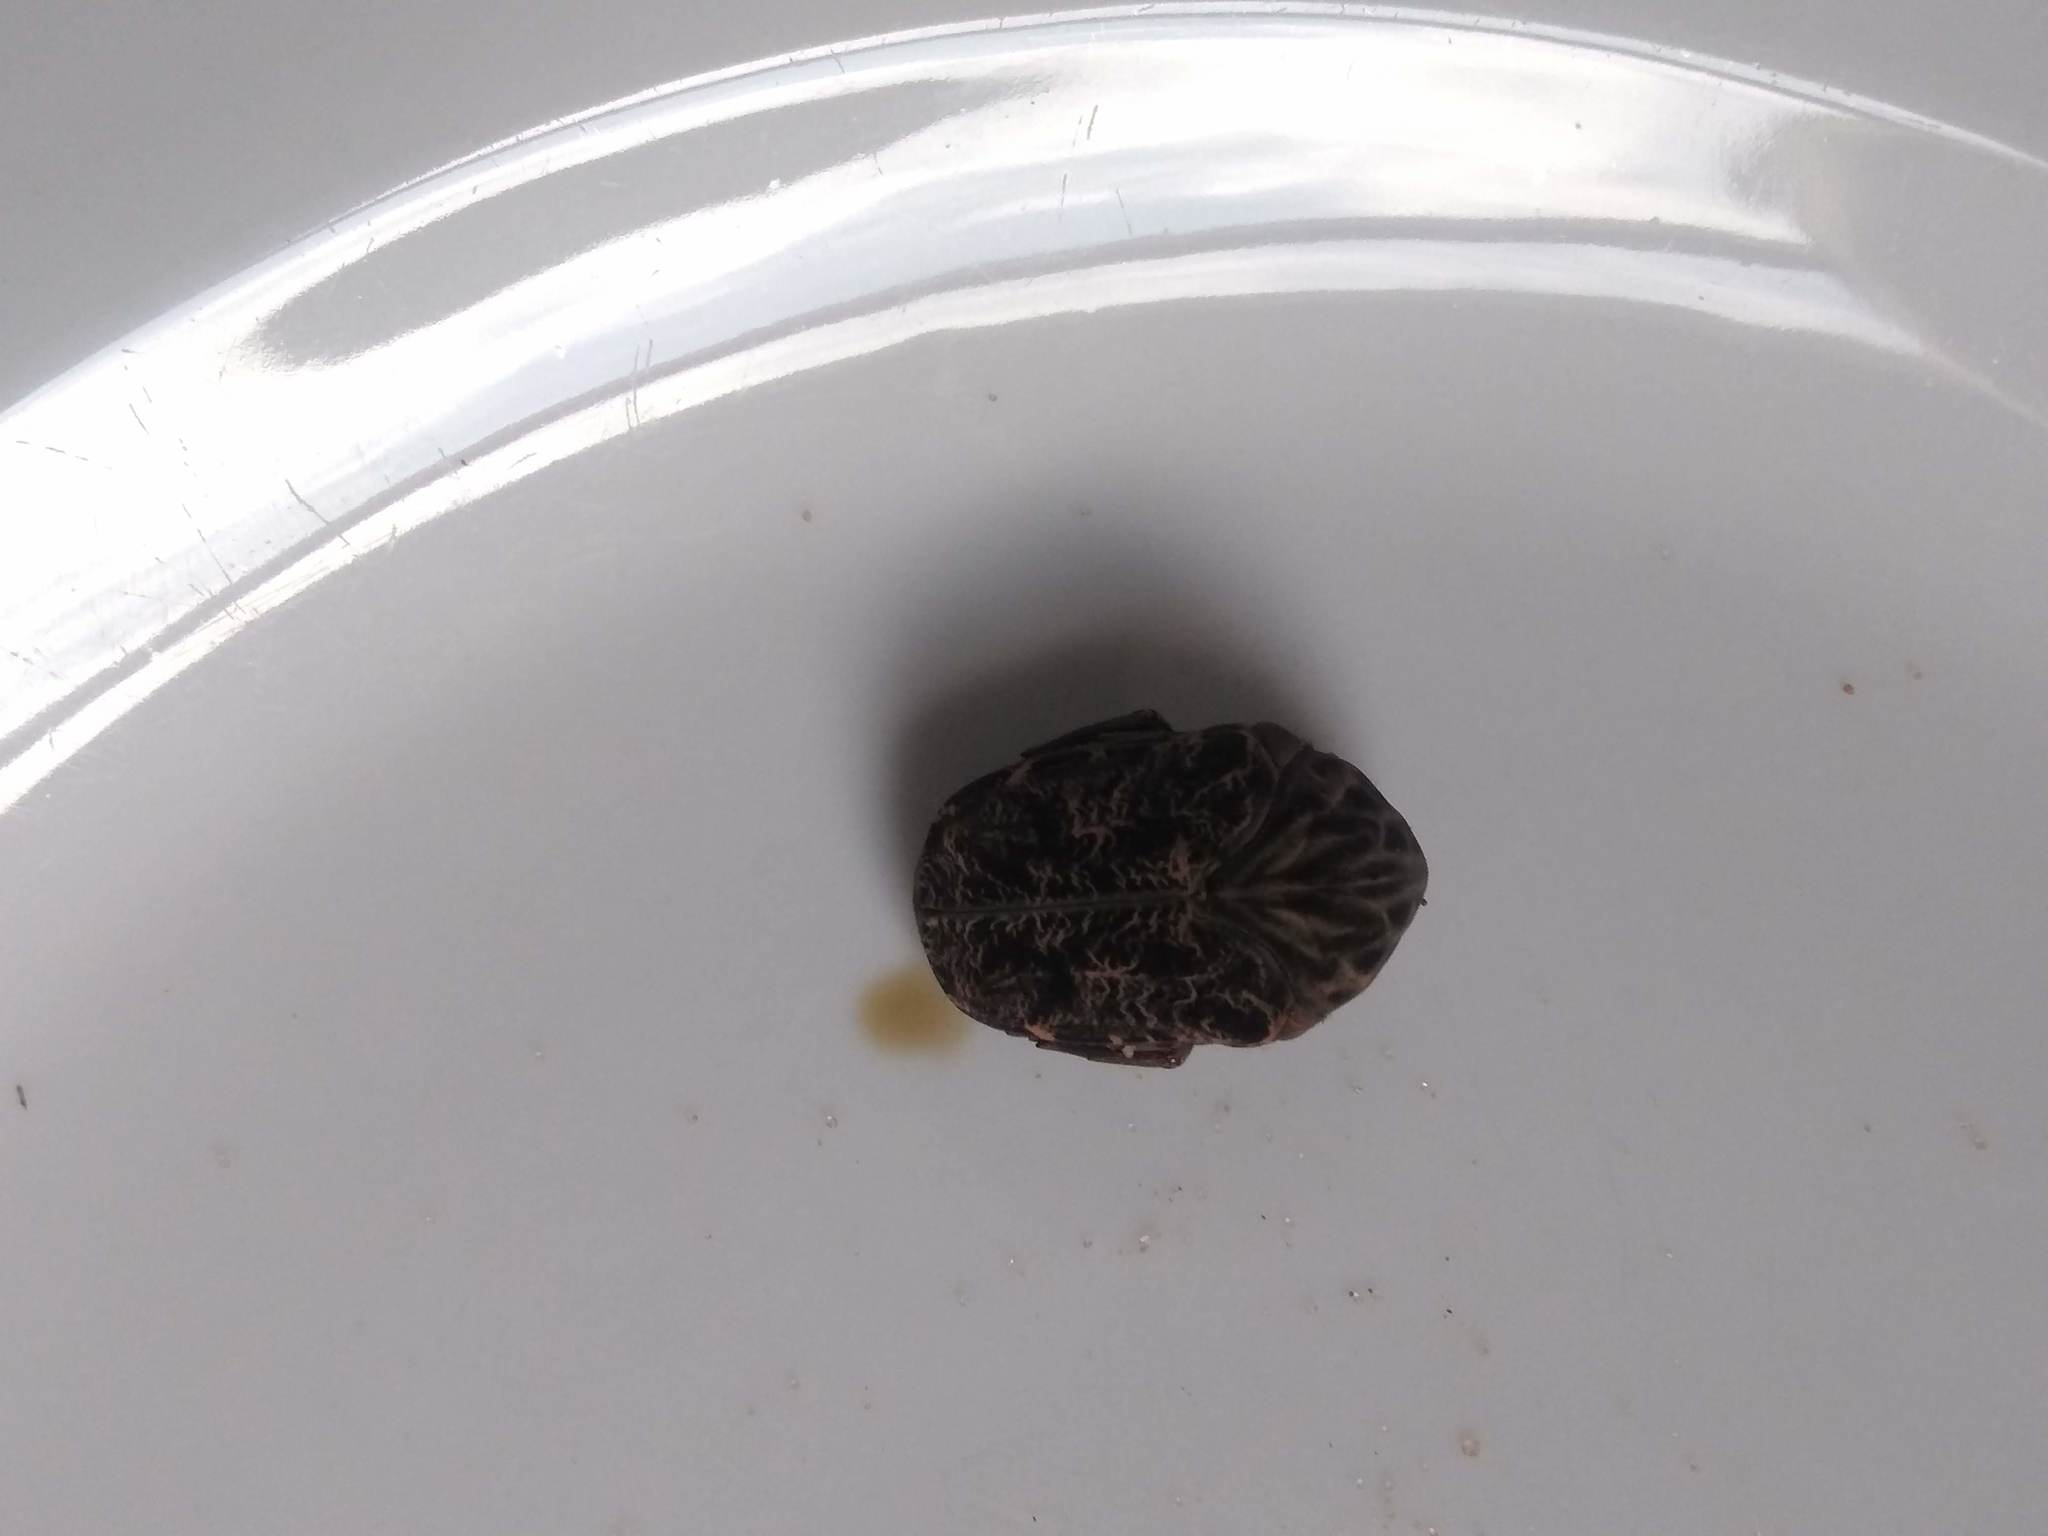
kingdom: Animalia
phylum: Arthropoda
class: Insecta
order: Coleoptera
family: Scarabaeidae
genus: Gymnetis
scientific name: Gymnetis chalcipes
